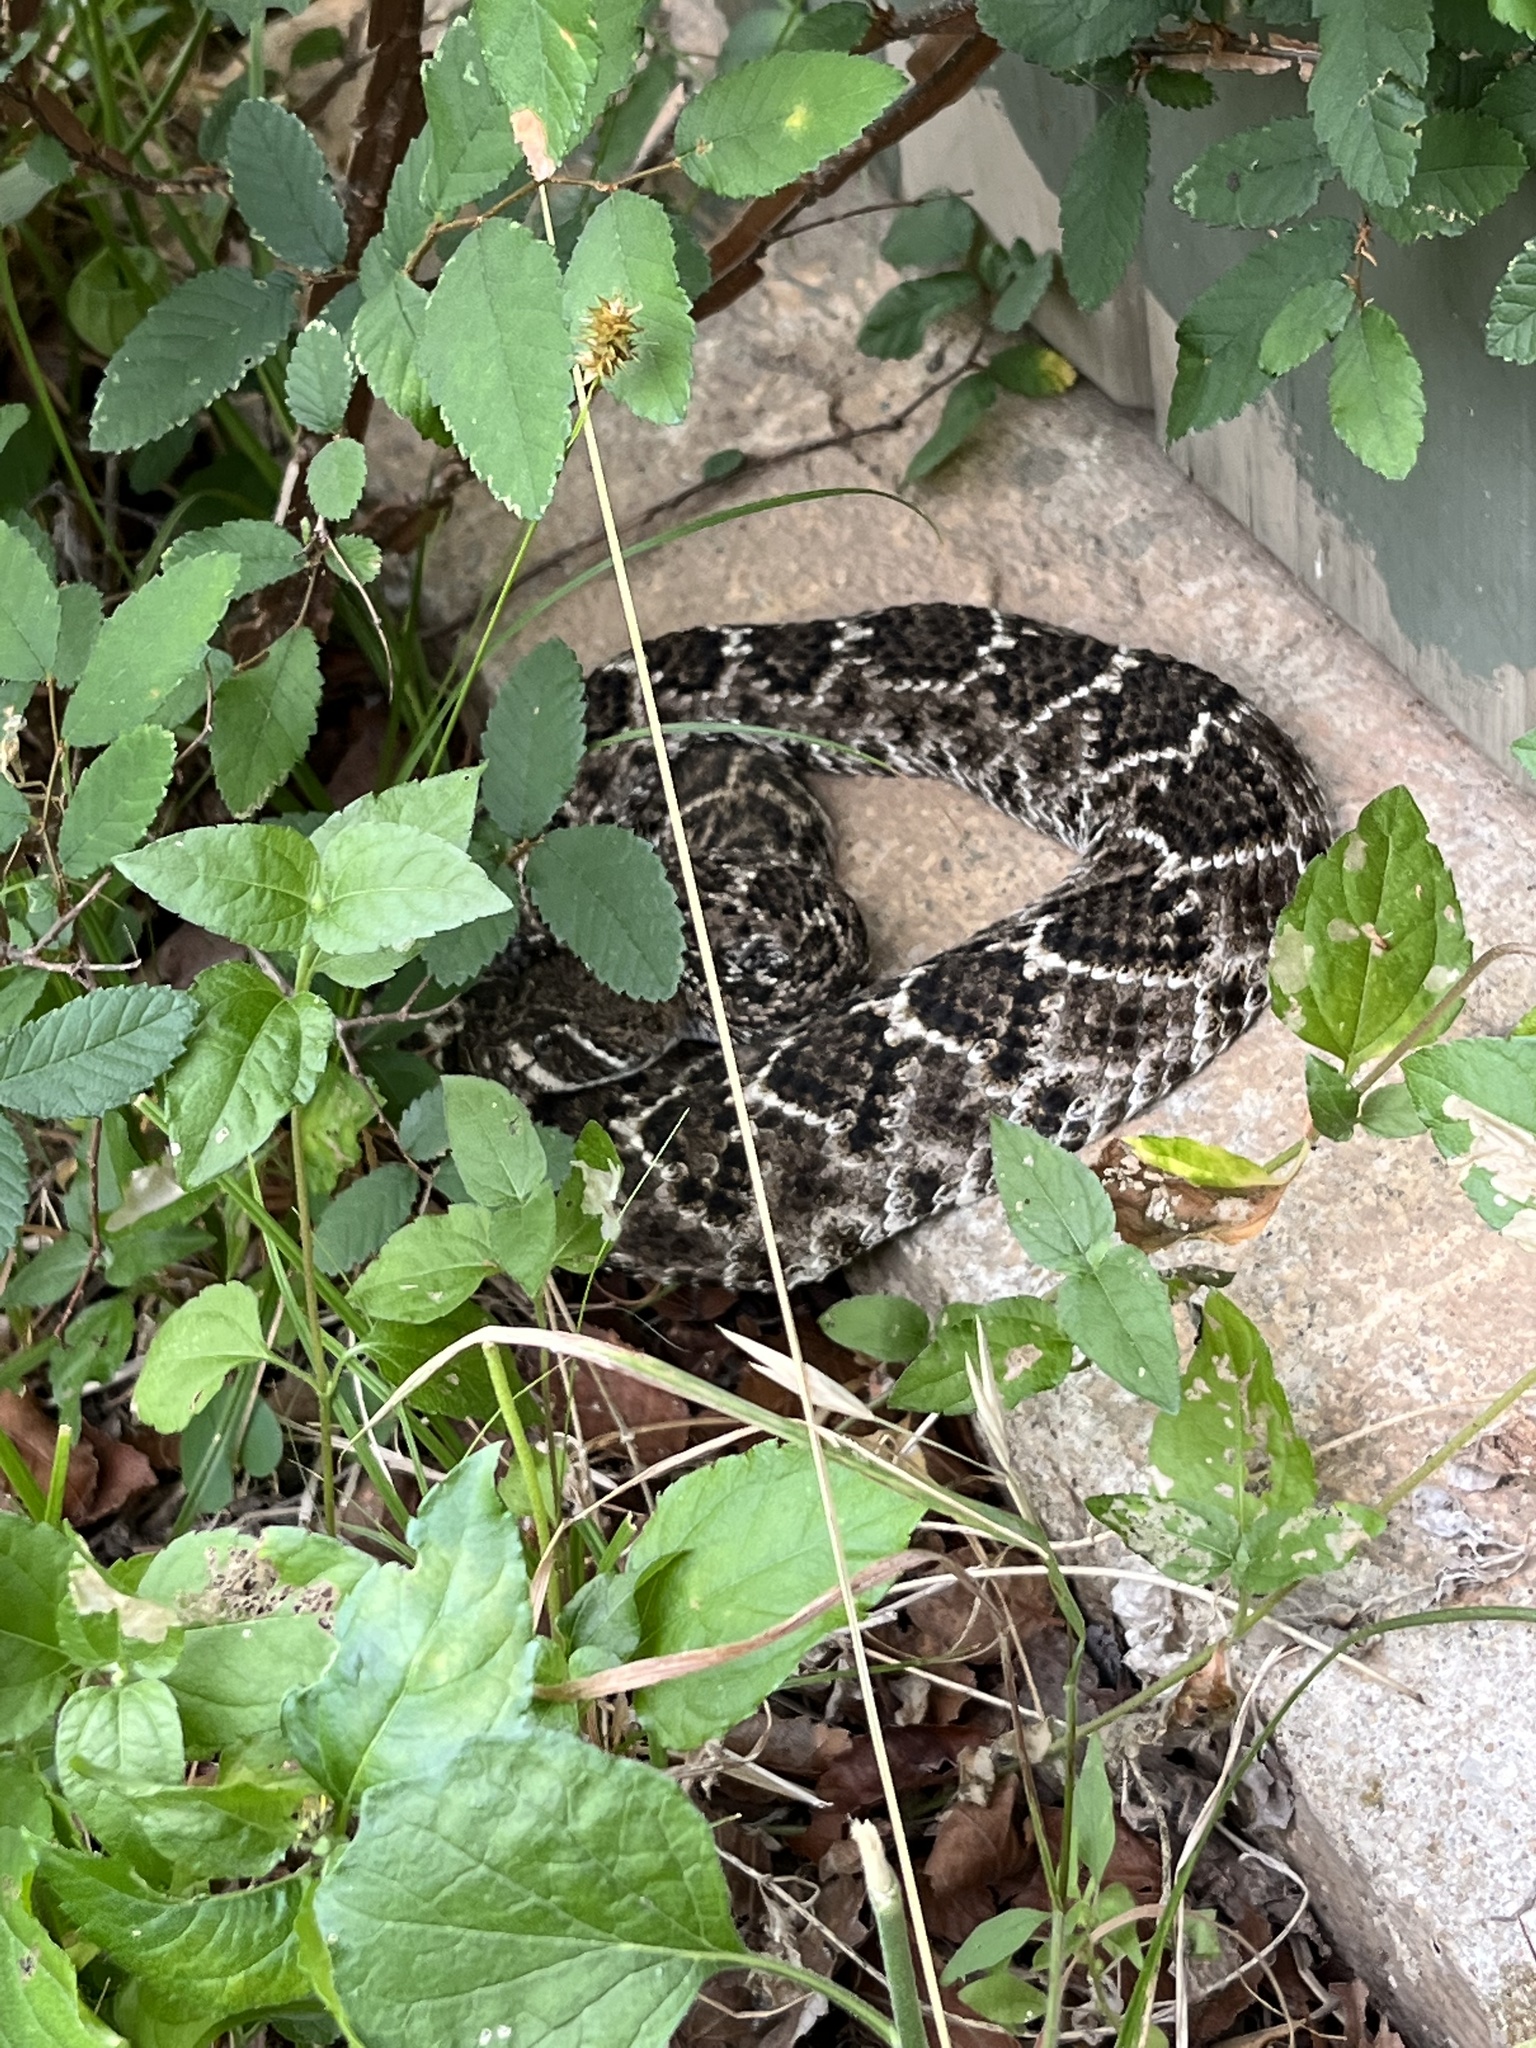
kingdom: Animalia
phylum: Chordata
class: Squamata
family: Viperidae
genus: Crotalus
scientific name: Crotalus atrox
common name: Western diamond-backed rattlesnake
